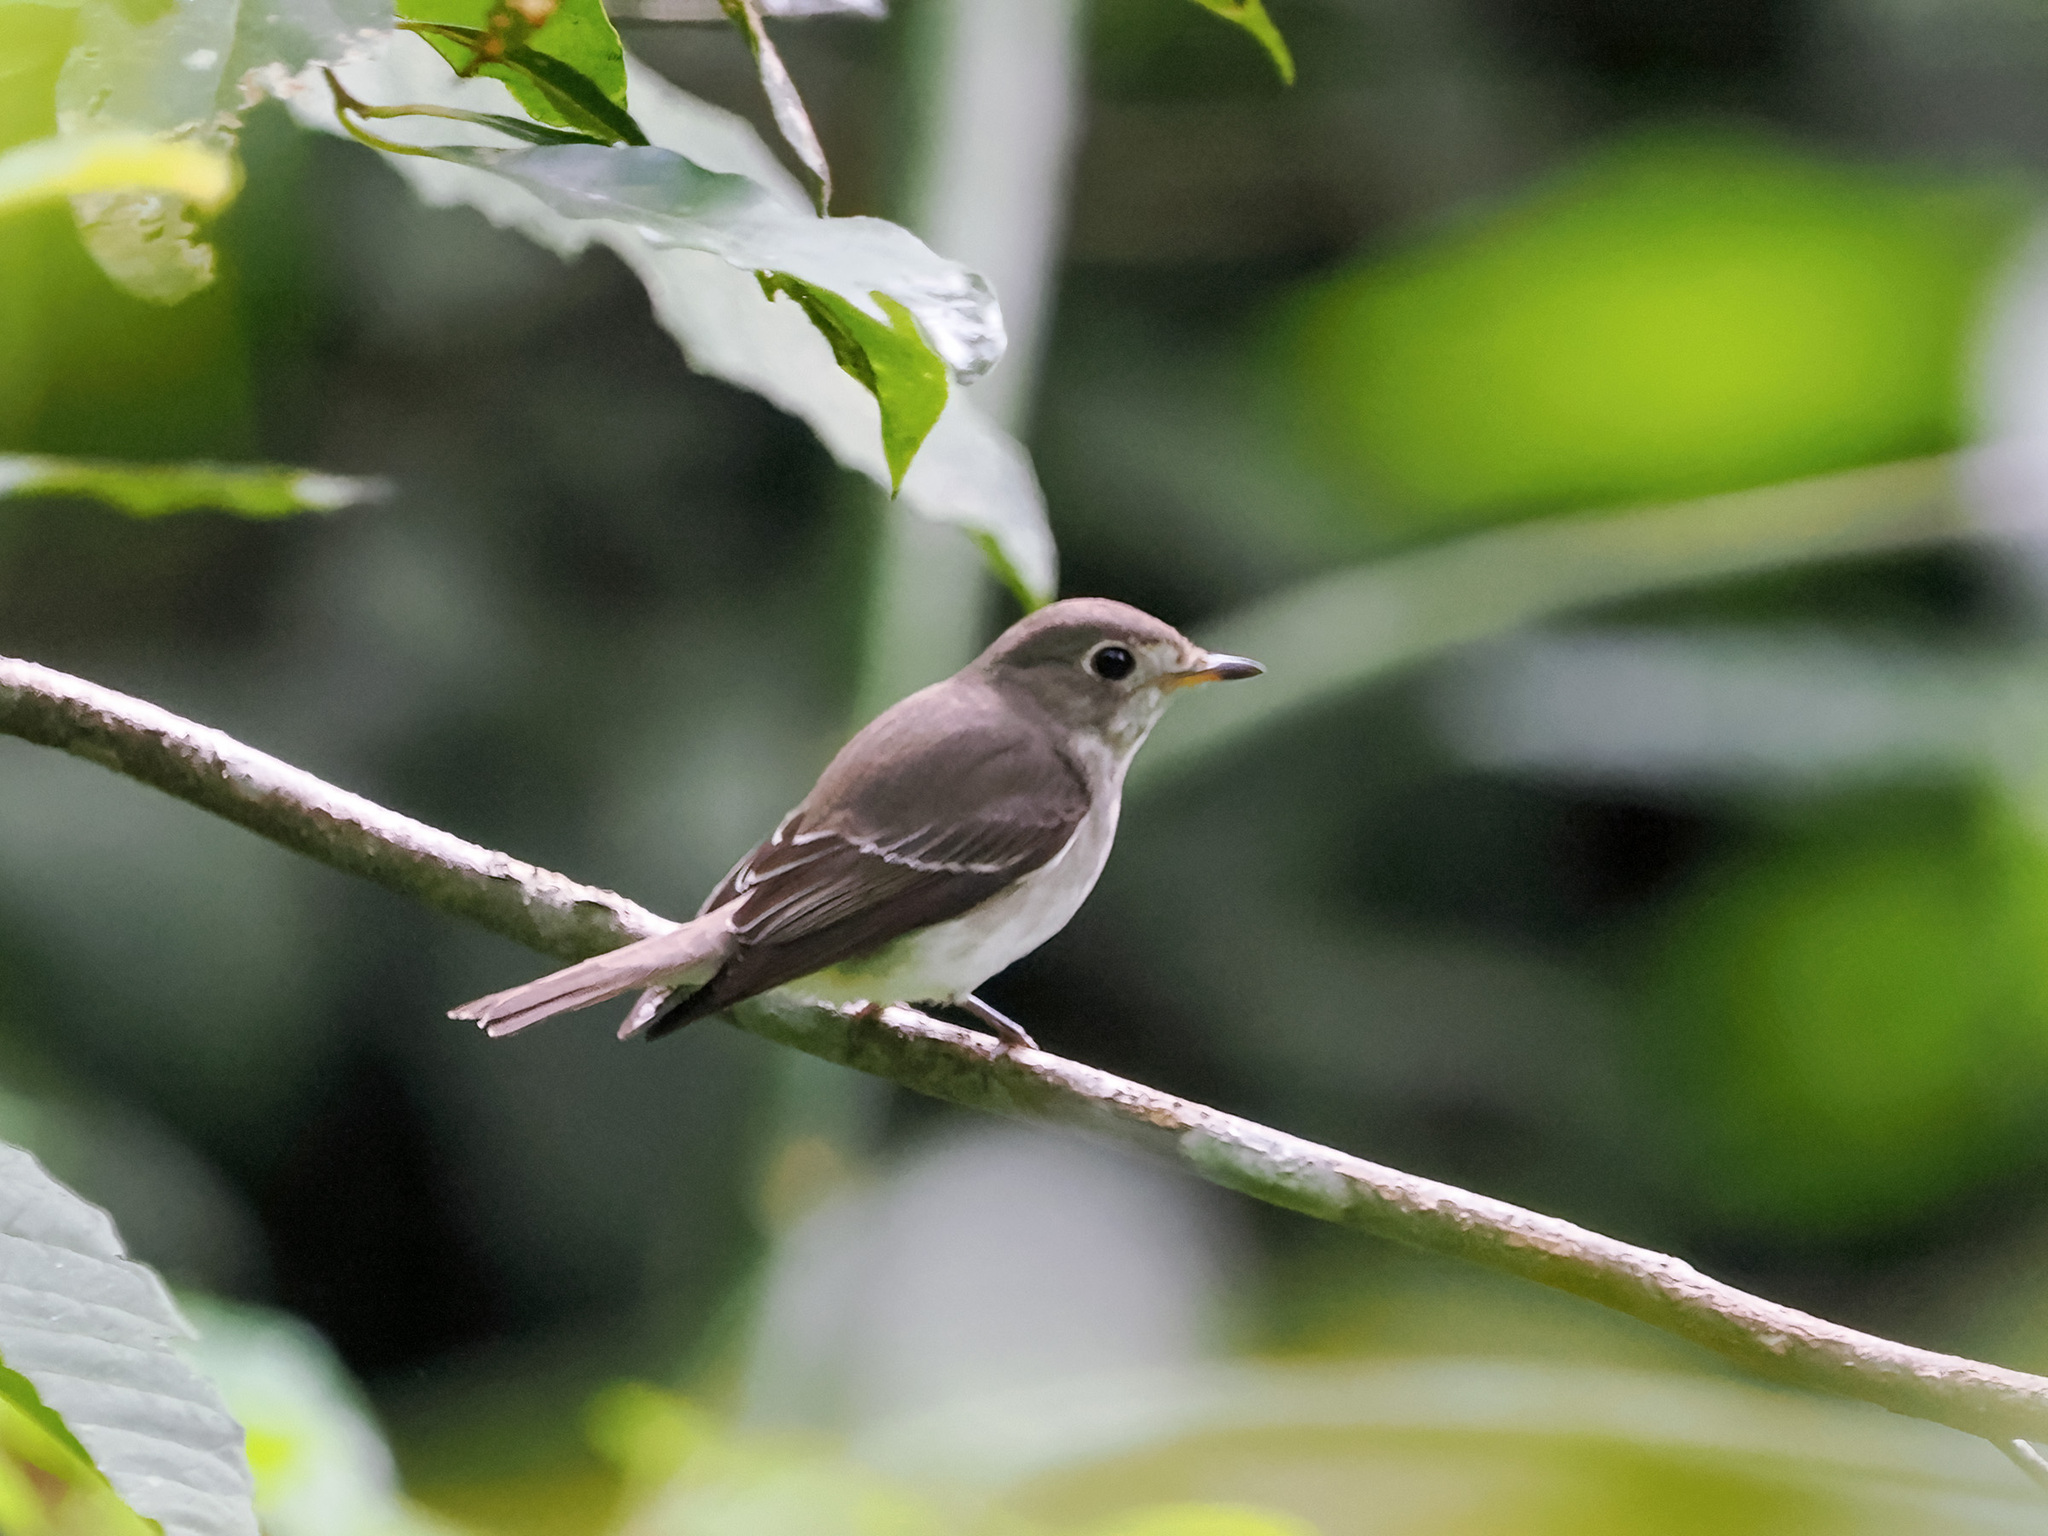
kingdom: Animalia
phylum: Chordata
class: Aves
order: Passeriformes
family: Muscicapidae
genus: Muscicapa
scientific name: Muscicapa latirostris
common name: Asian brown flycatcher
